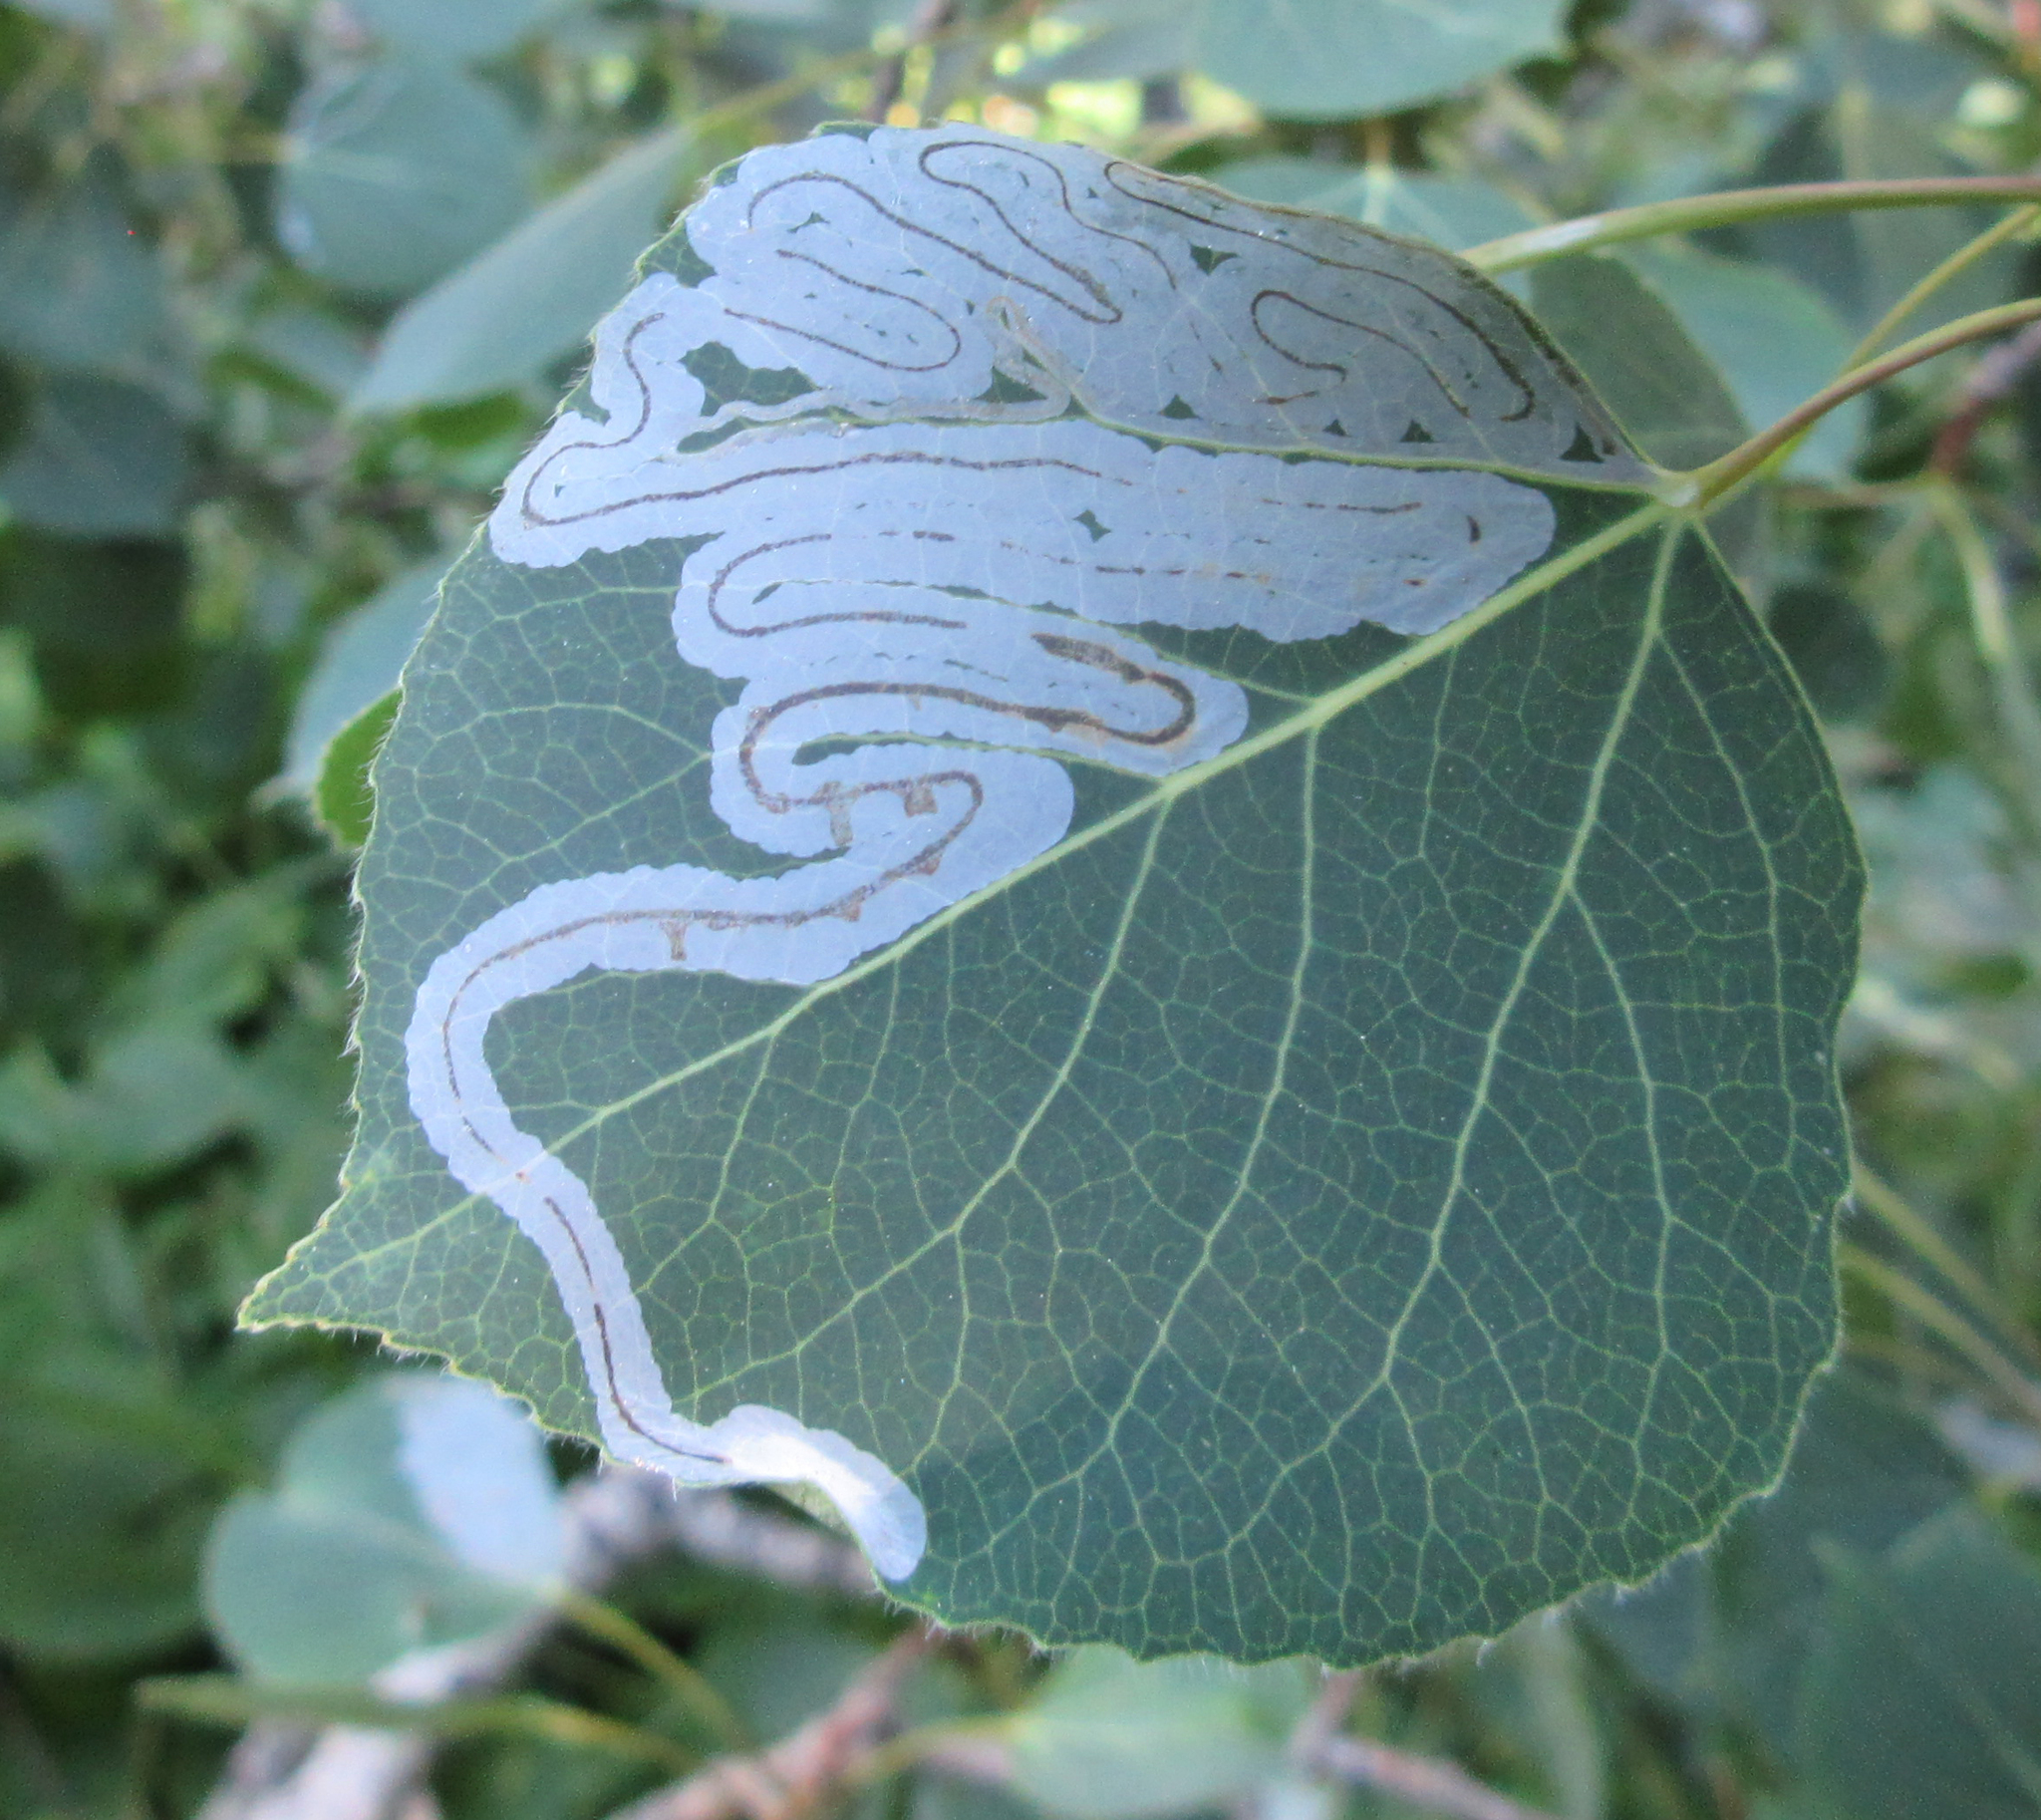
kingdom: Animalia
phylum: Arthropoda
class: Insecta
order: Lepidoptera
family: Gracillariidae
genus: Phyllocnistis
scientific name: Phyllocnistis populiella
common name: Aspen serpentine leafminer moth
